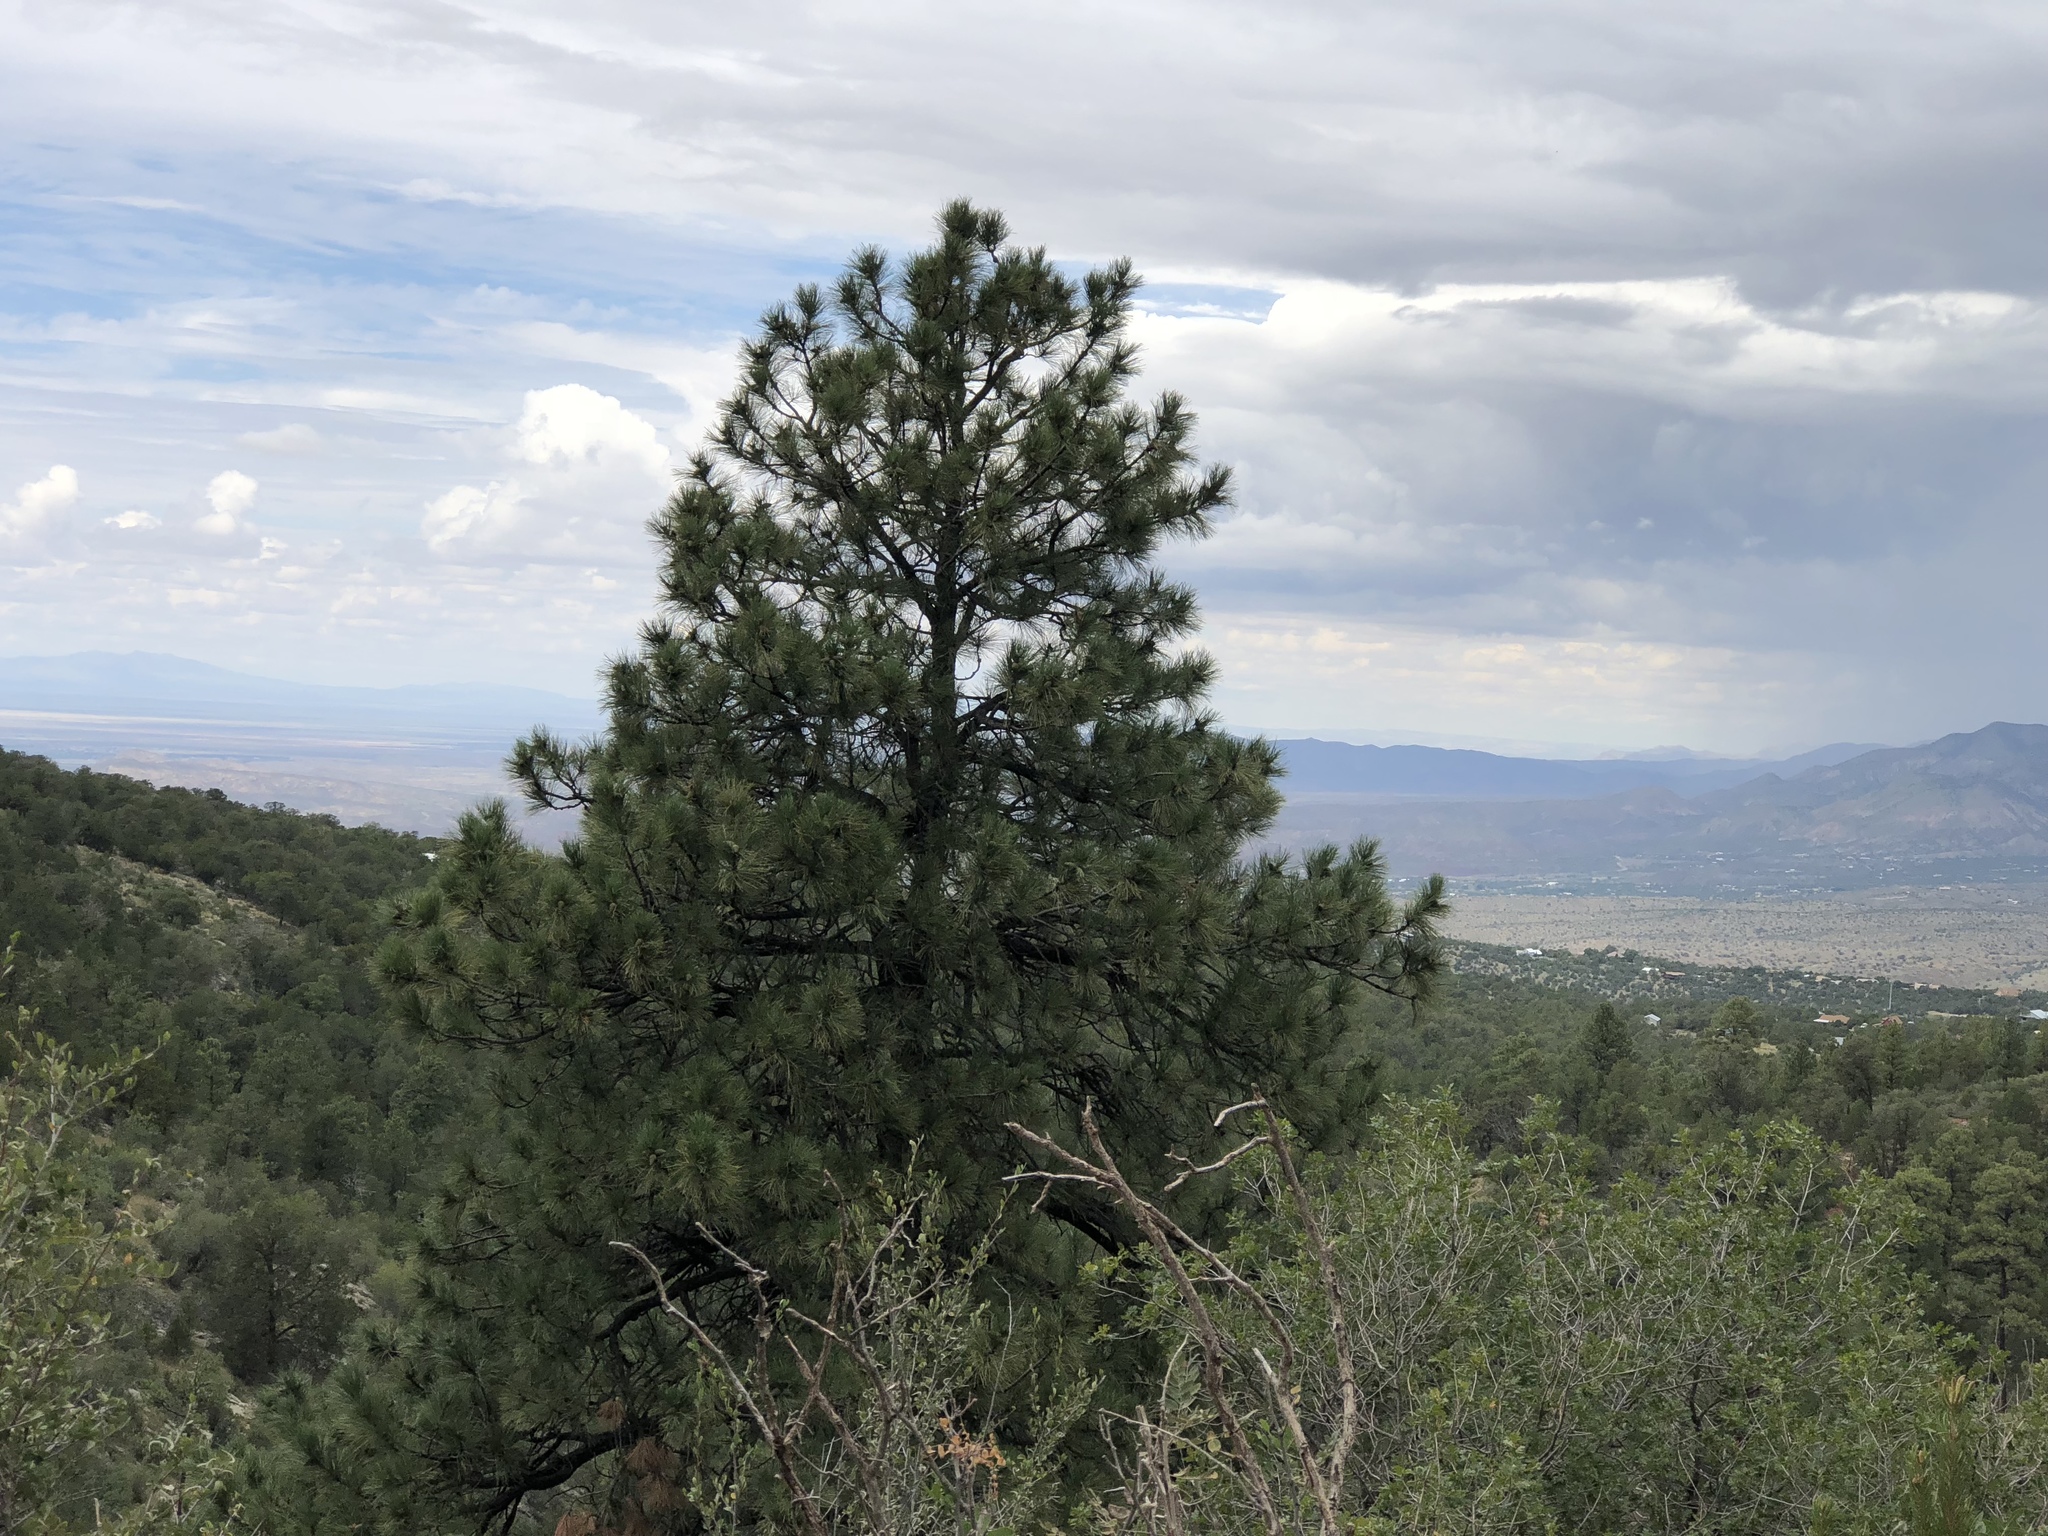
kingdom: Plantae
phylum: Tracheophyta
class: Pinopsida
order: Pinales
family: Pinaceae
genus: Pinus
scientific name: Pinus ponderosa
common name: Western yellow-pine
